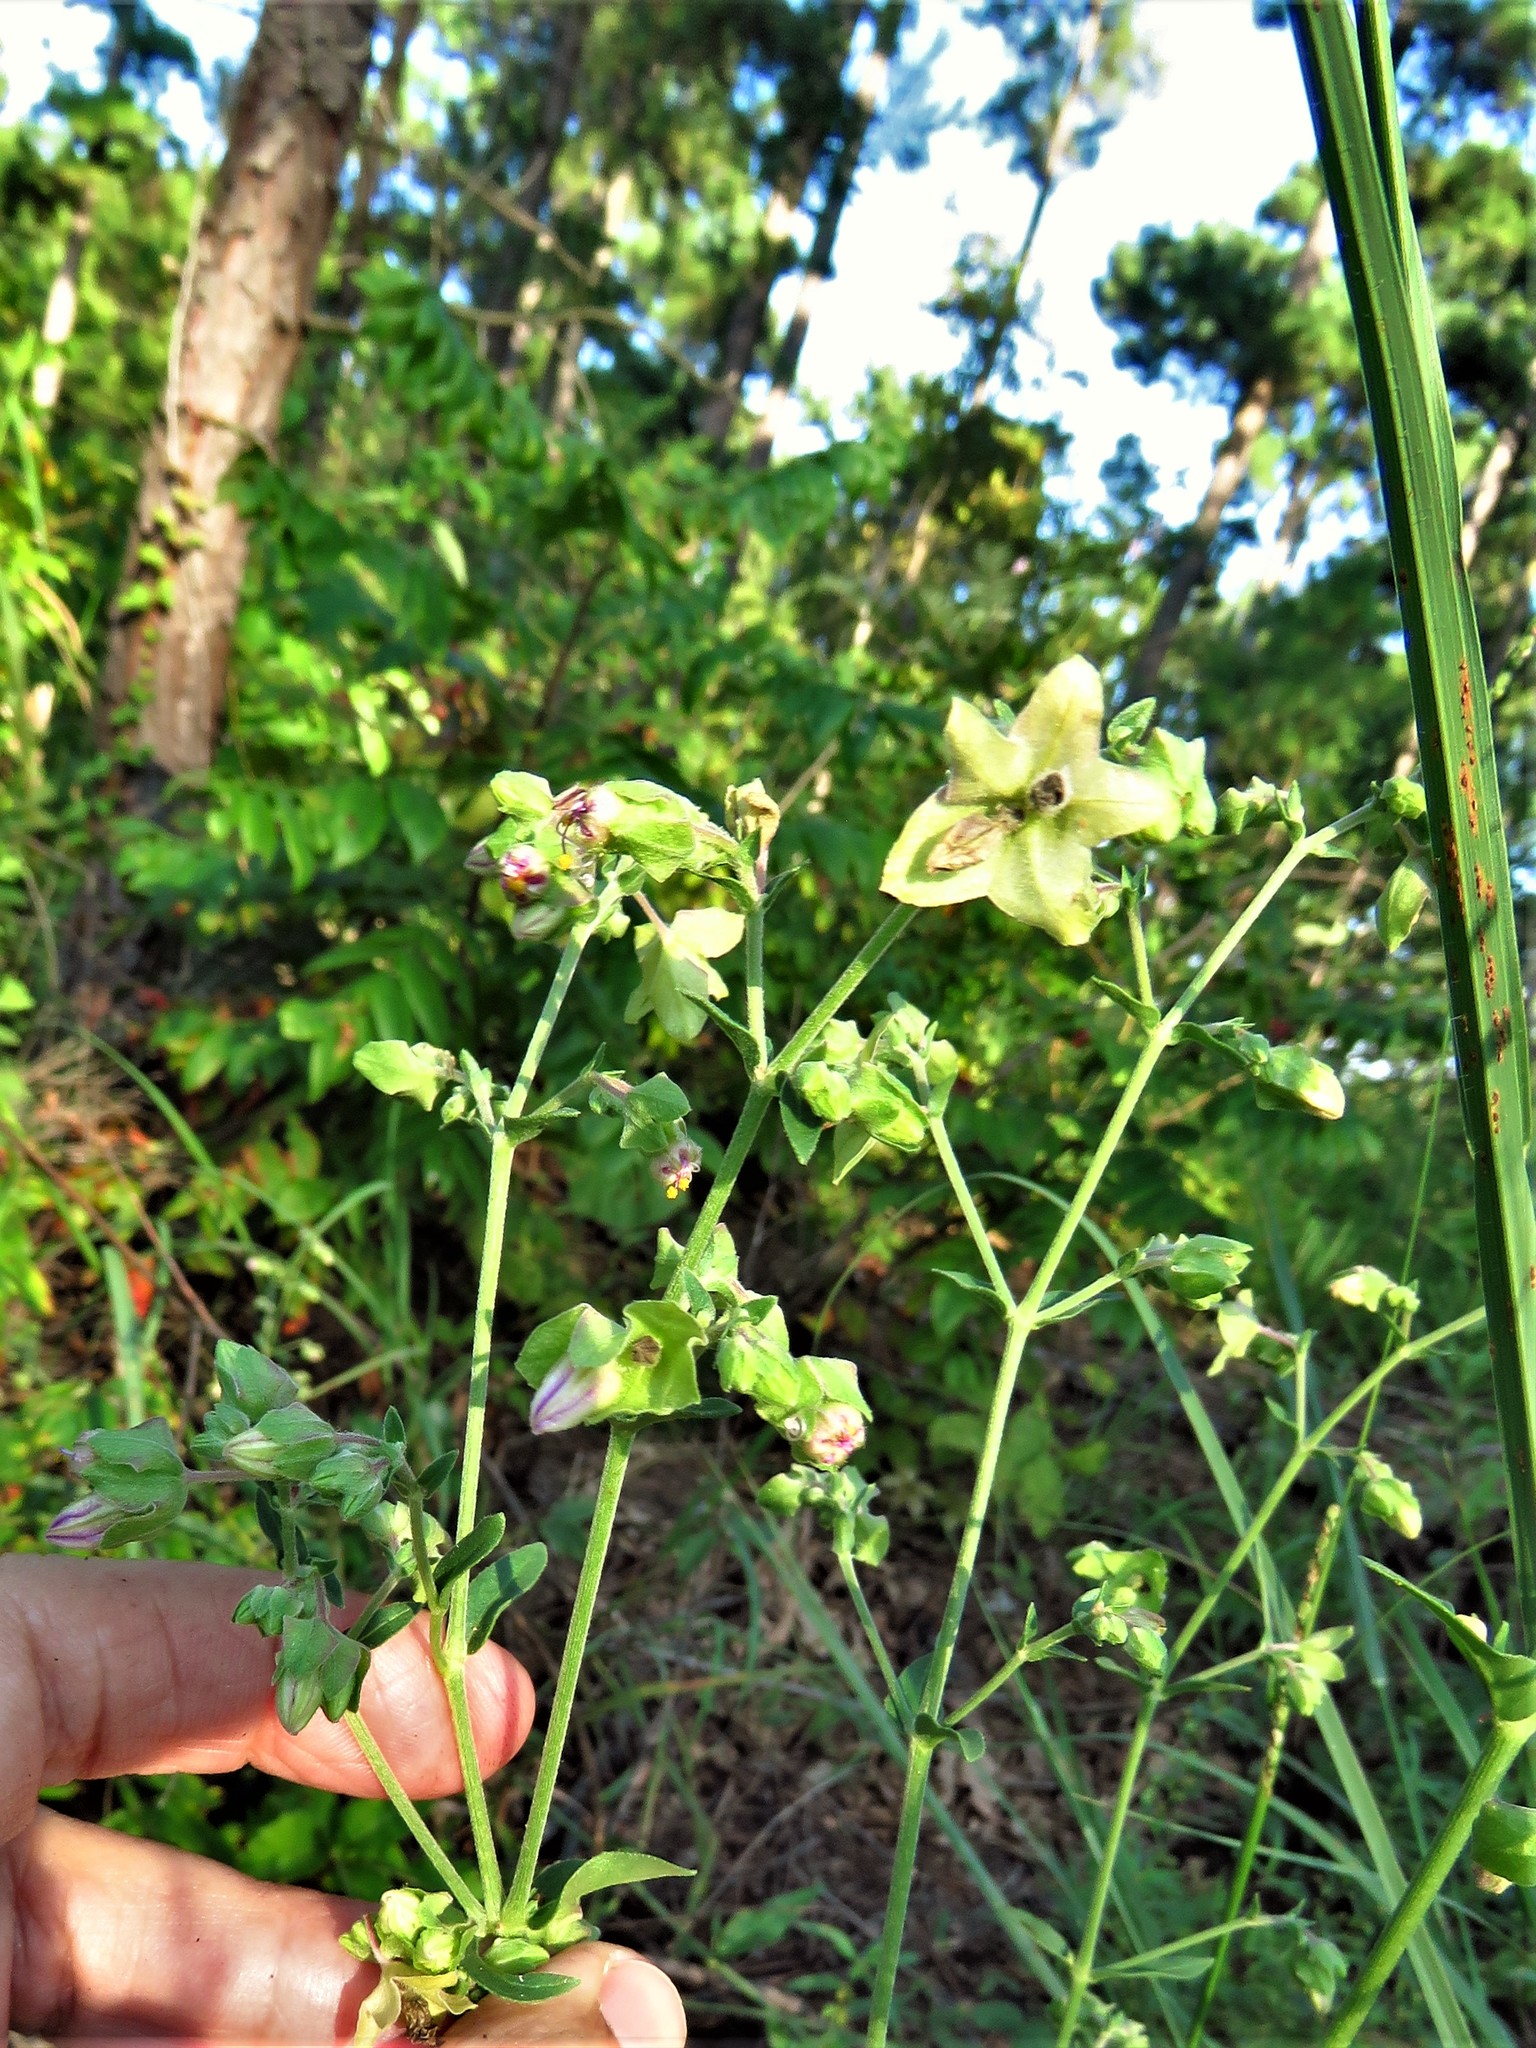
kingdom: Plantae
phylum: Tracheophyta
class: Magnoliopsida
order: Caryophyllales
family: Nyctaginaceae
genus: Mirabilis
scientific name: Mirabilis albida
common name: Hairy four-o'clock
